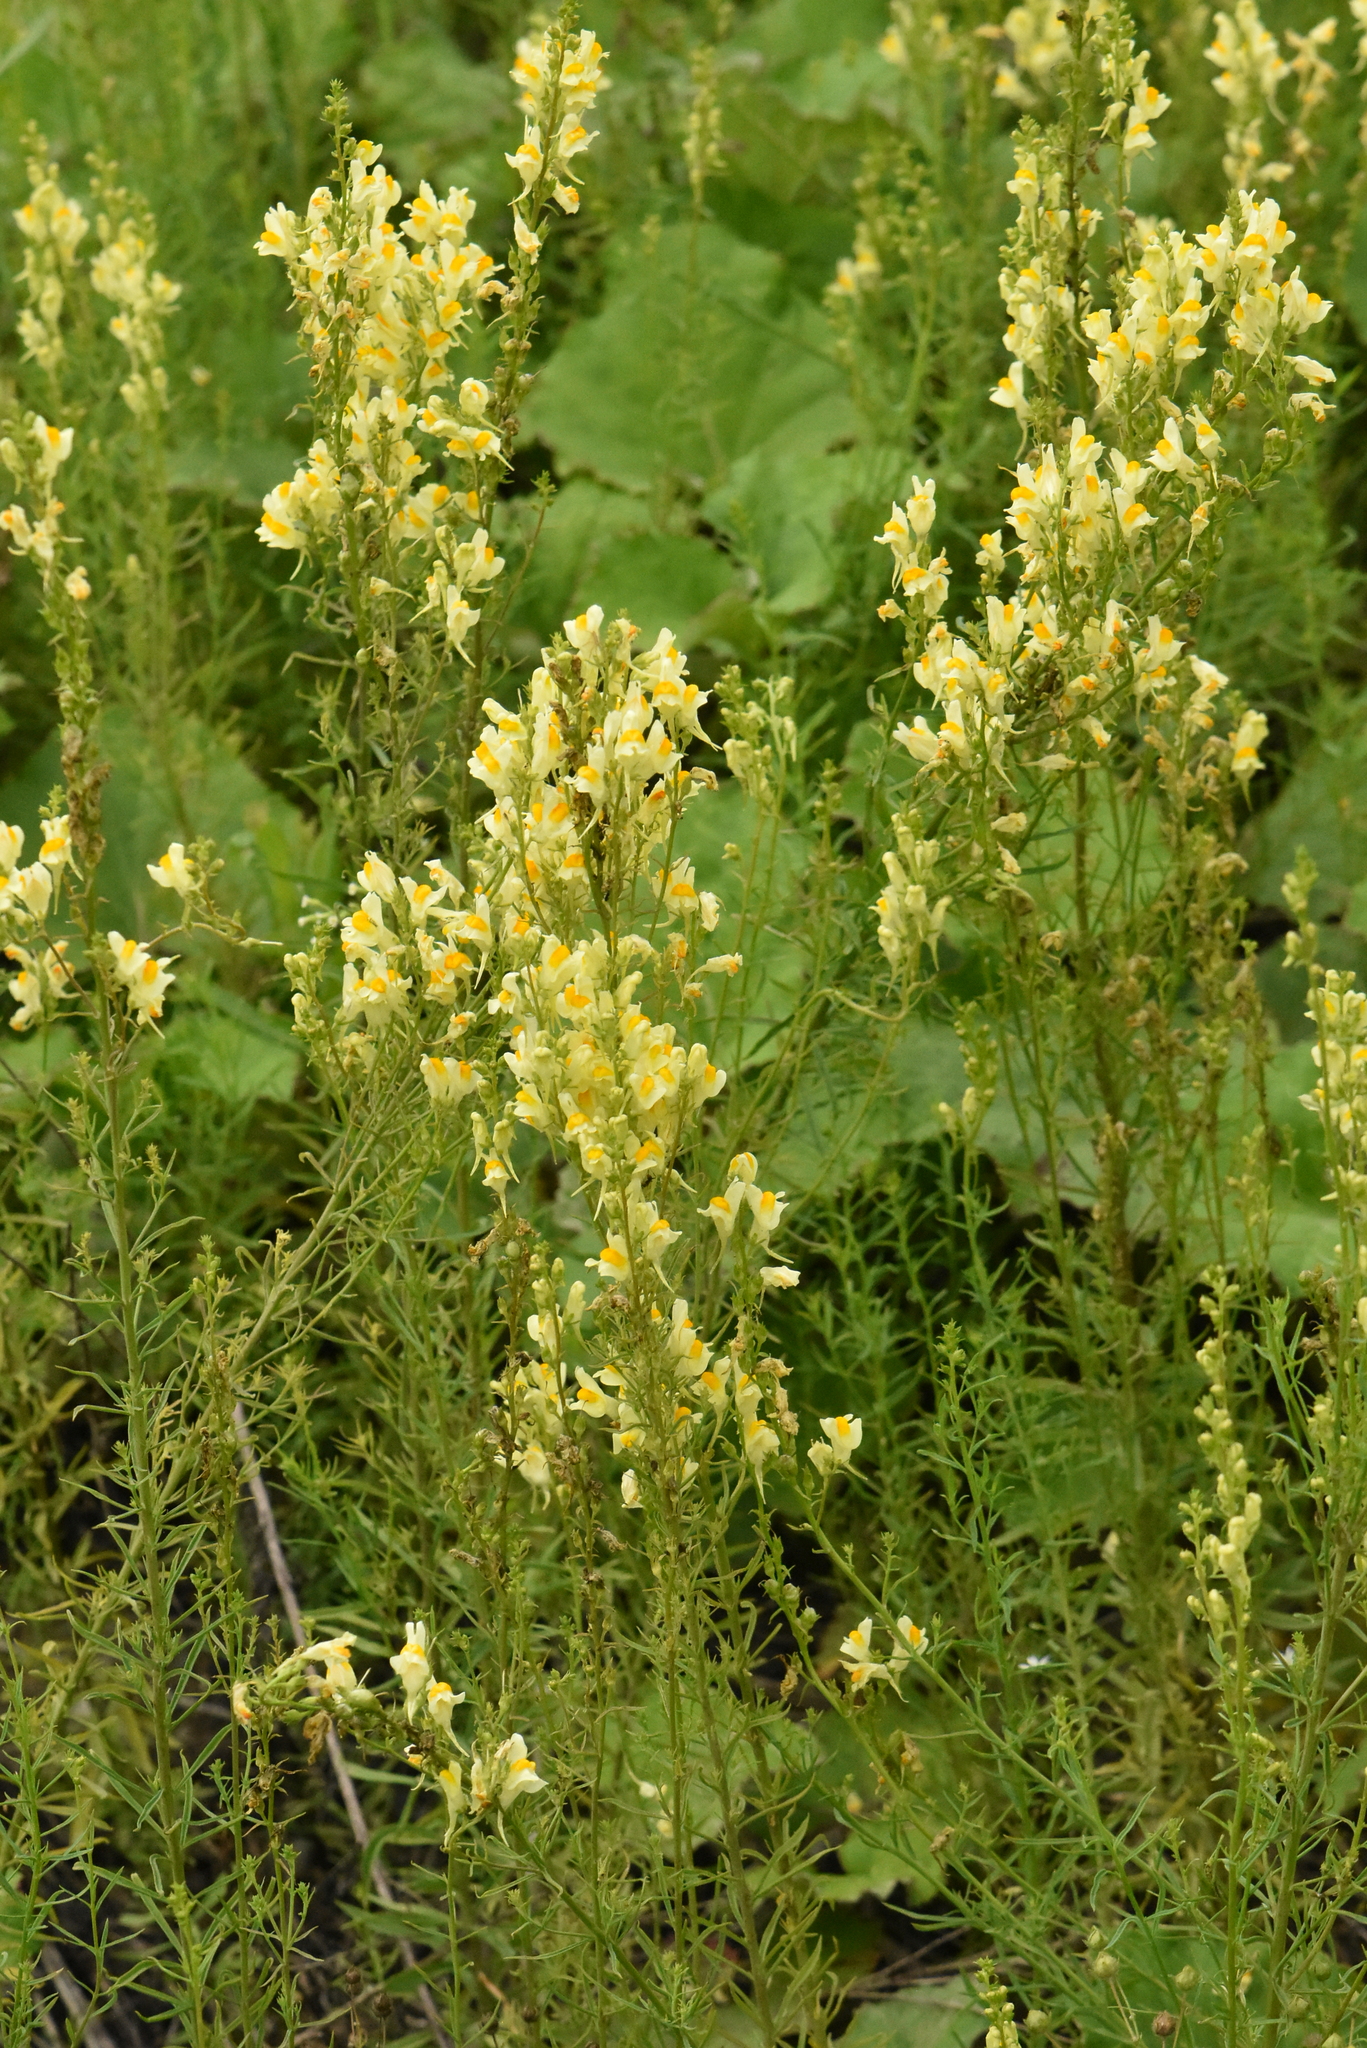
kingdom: Plantae
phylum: Tracheophyta
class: Magnoliopsida
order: Lamiales
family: Plantaginaceae
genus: Linaria
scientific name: Linaria vulgaris
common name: Butter and eggs
